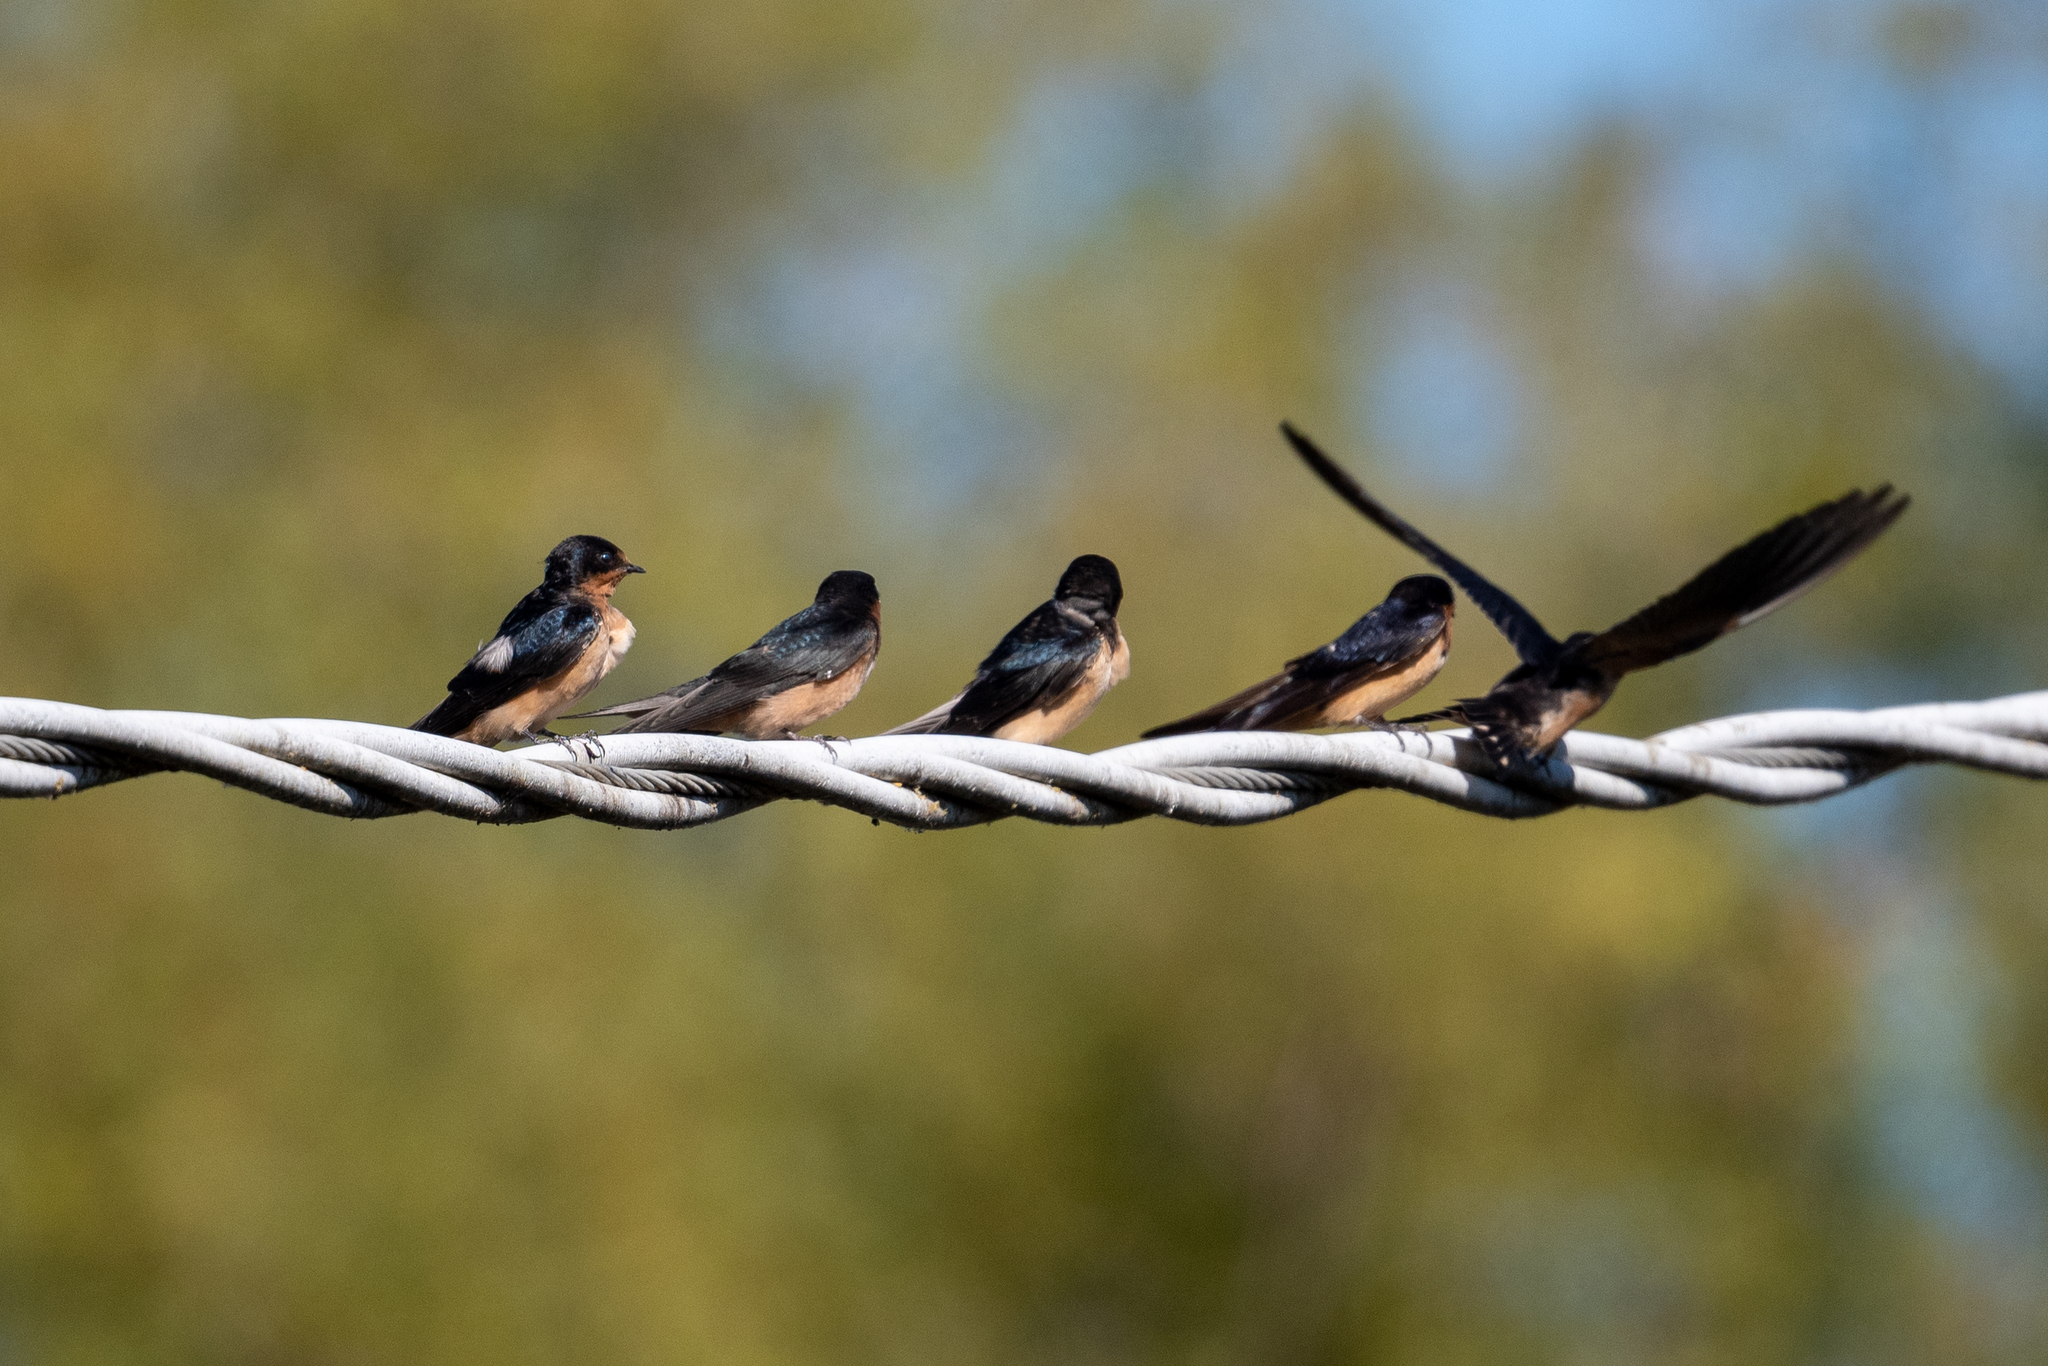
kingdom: Animalia
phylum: Chordata
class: Aves
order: Passeriformes
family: Hirundinidae
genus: Hirundo
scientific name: Hirundo rustica
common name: Barn swallow
